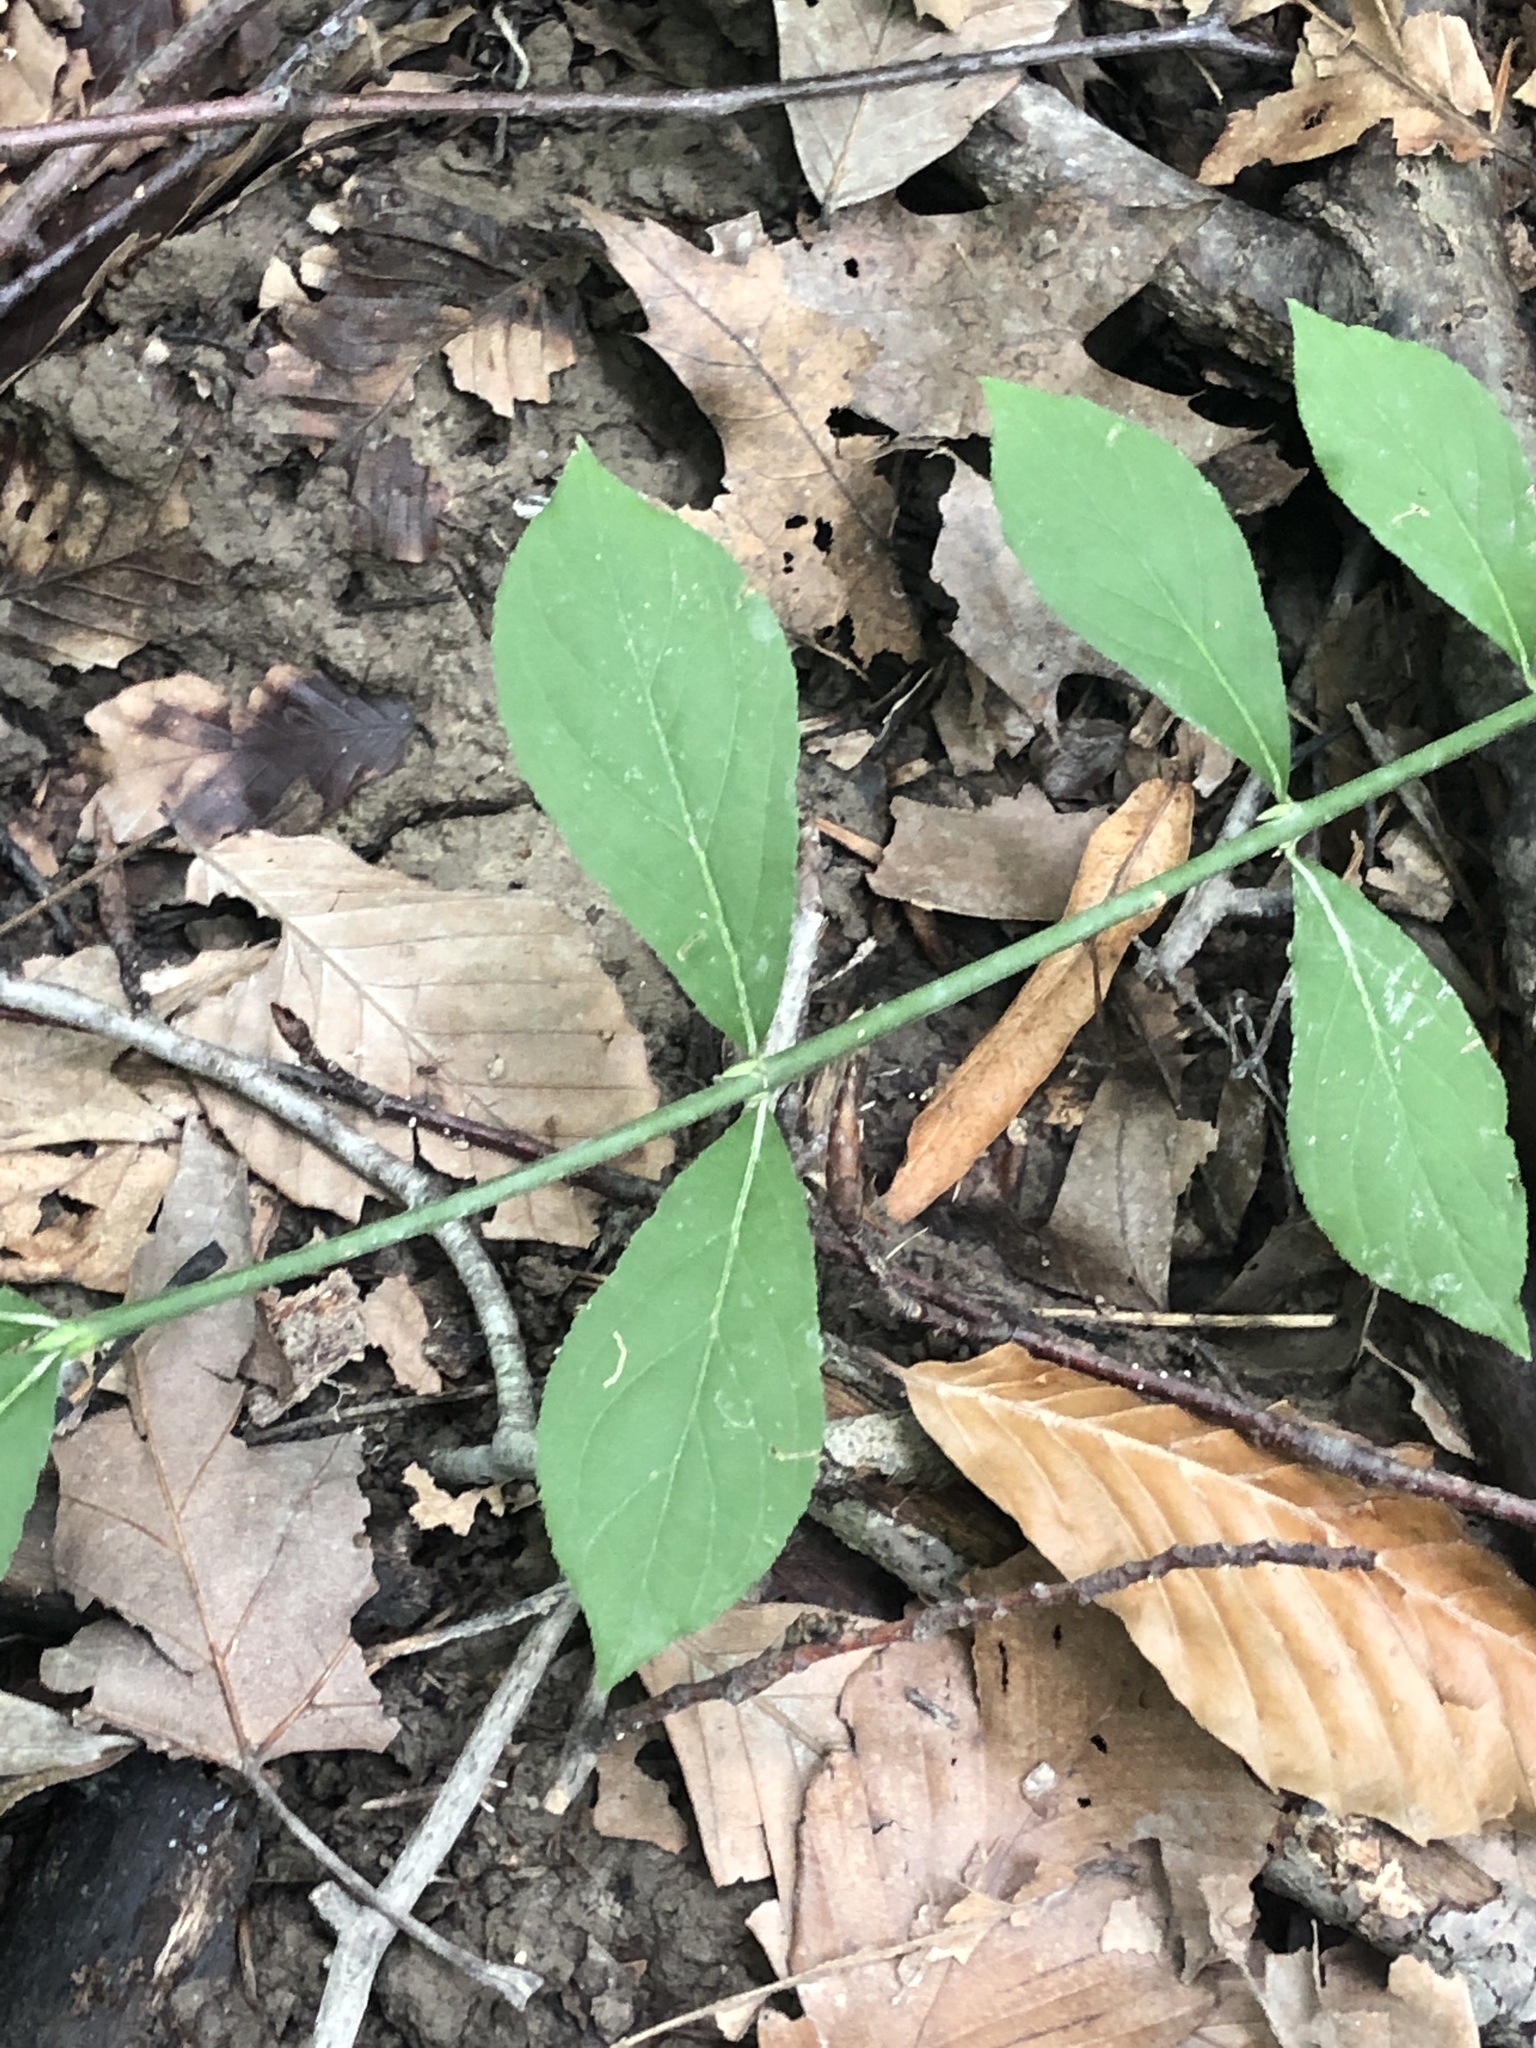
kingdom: Plantae
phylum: Tracheophyta
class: Magnoliopsida
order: Celastrales
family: Celastraceae
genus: Euonymus
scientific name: Euonymus obovatus
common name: Running strawberry-bush
